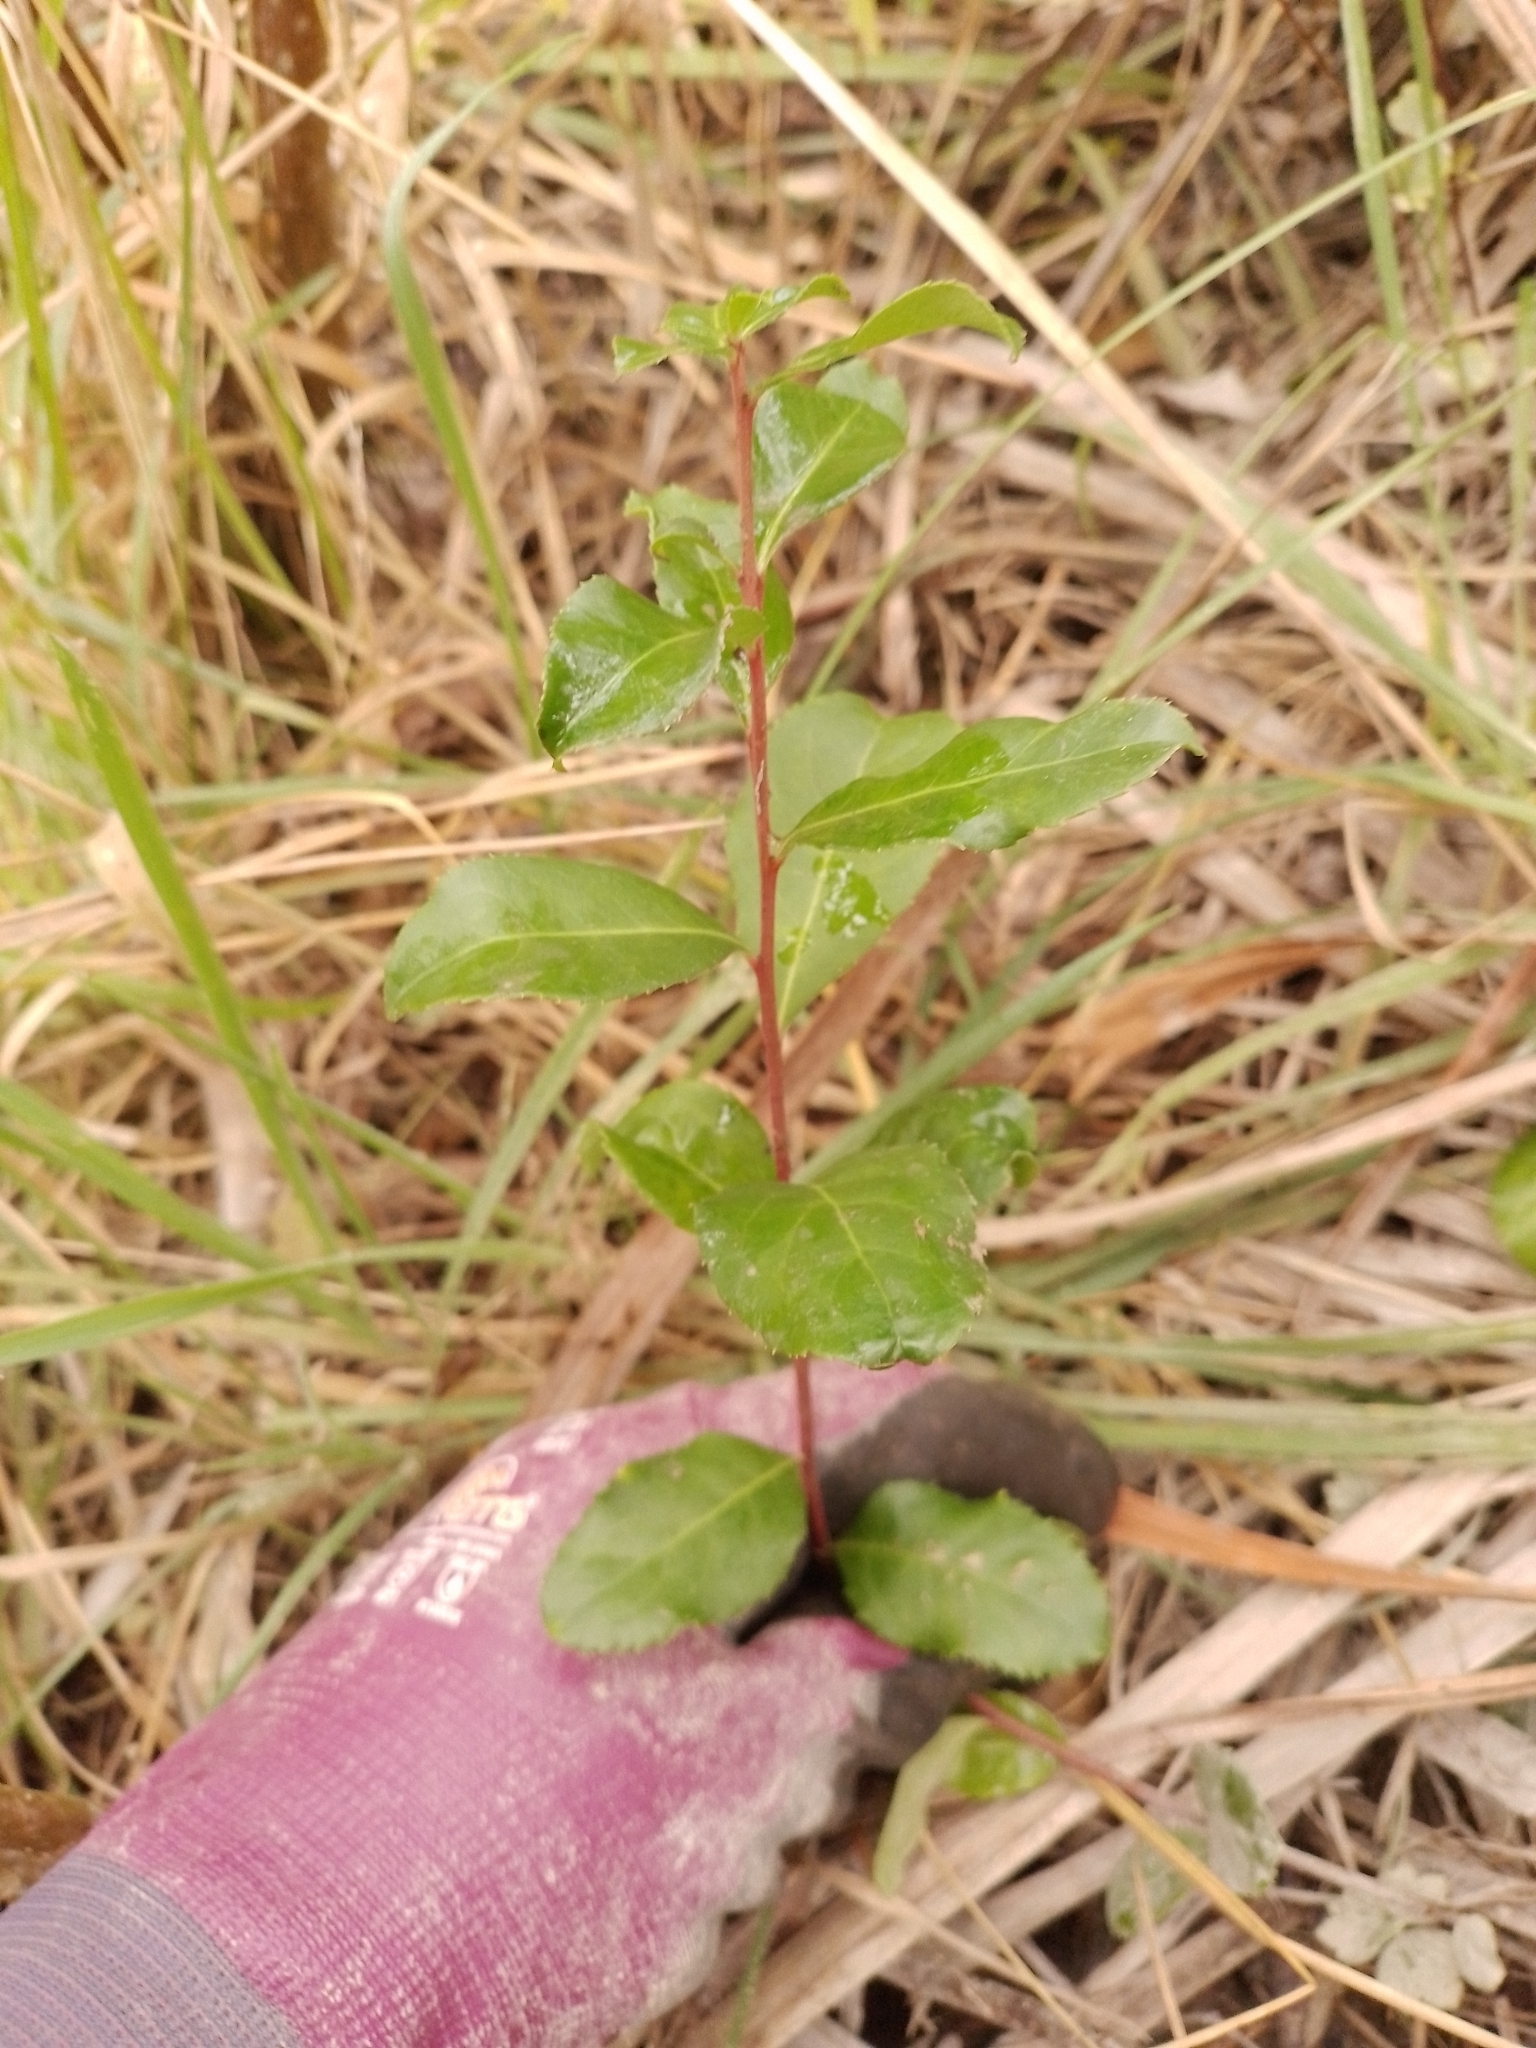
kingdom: Plantae
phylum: Tracheophyta
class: Magnoliopsida
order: Celastrales
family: Celastraceae
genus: Maytenus
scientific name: Maytenus boaria
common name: Mayten
